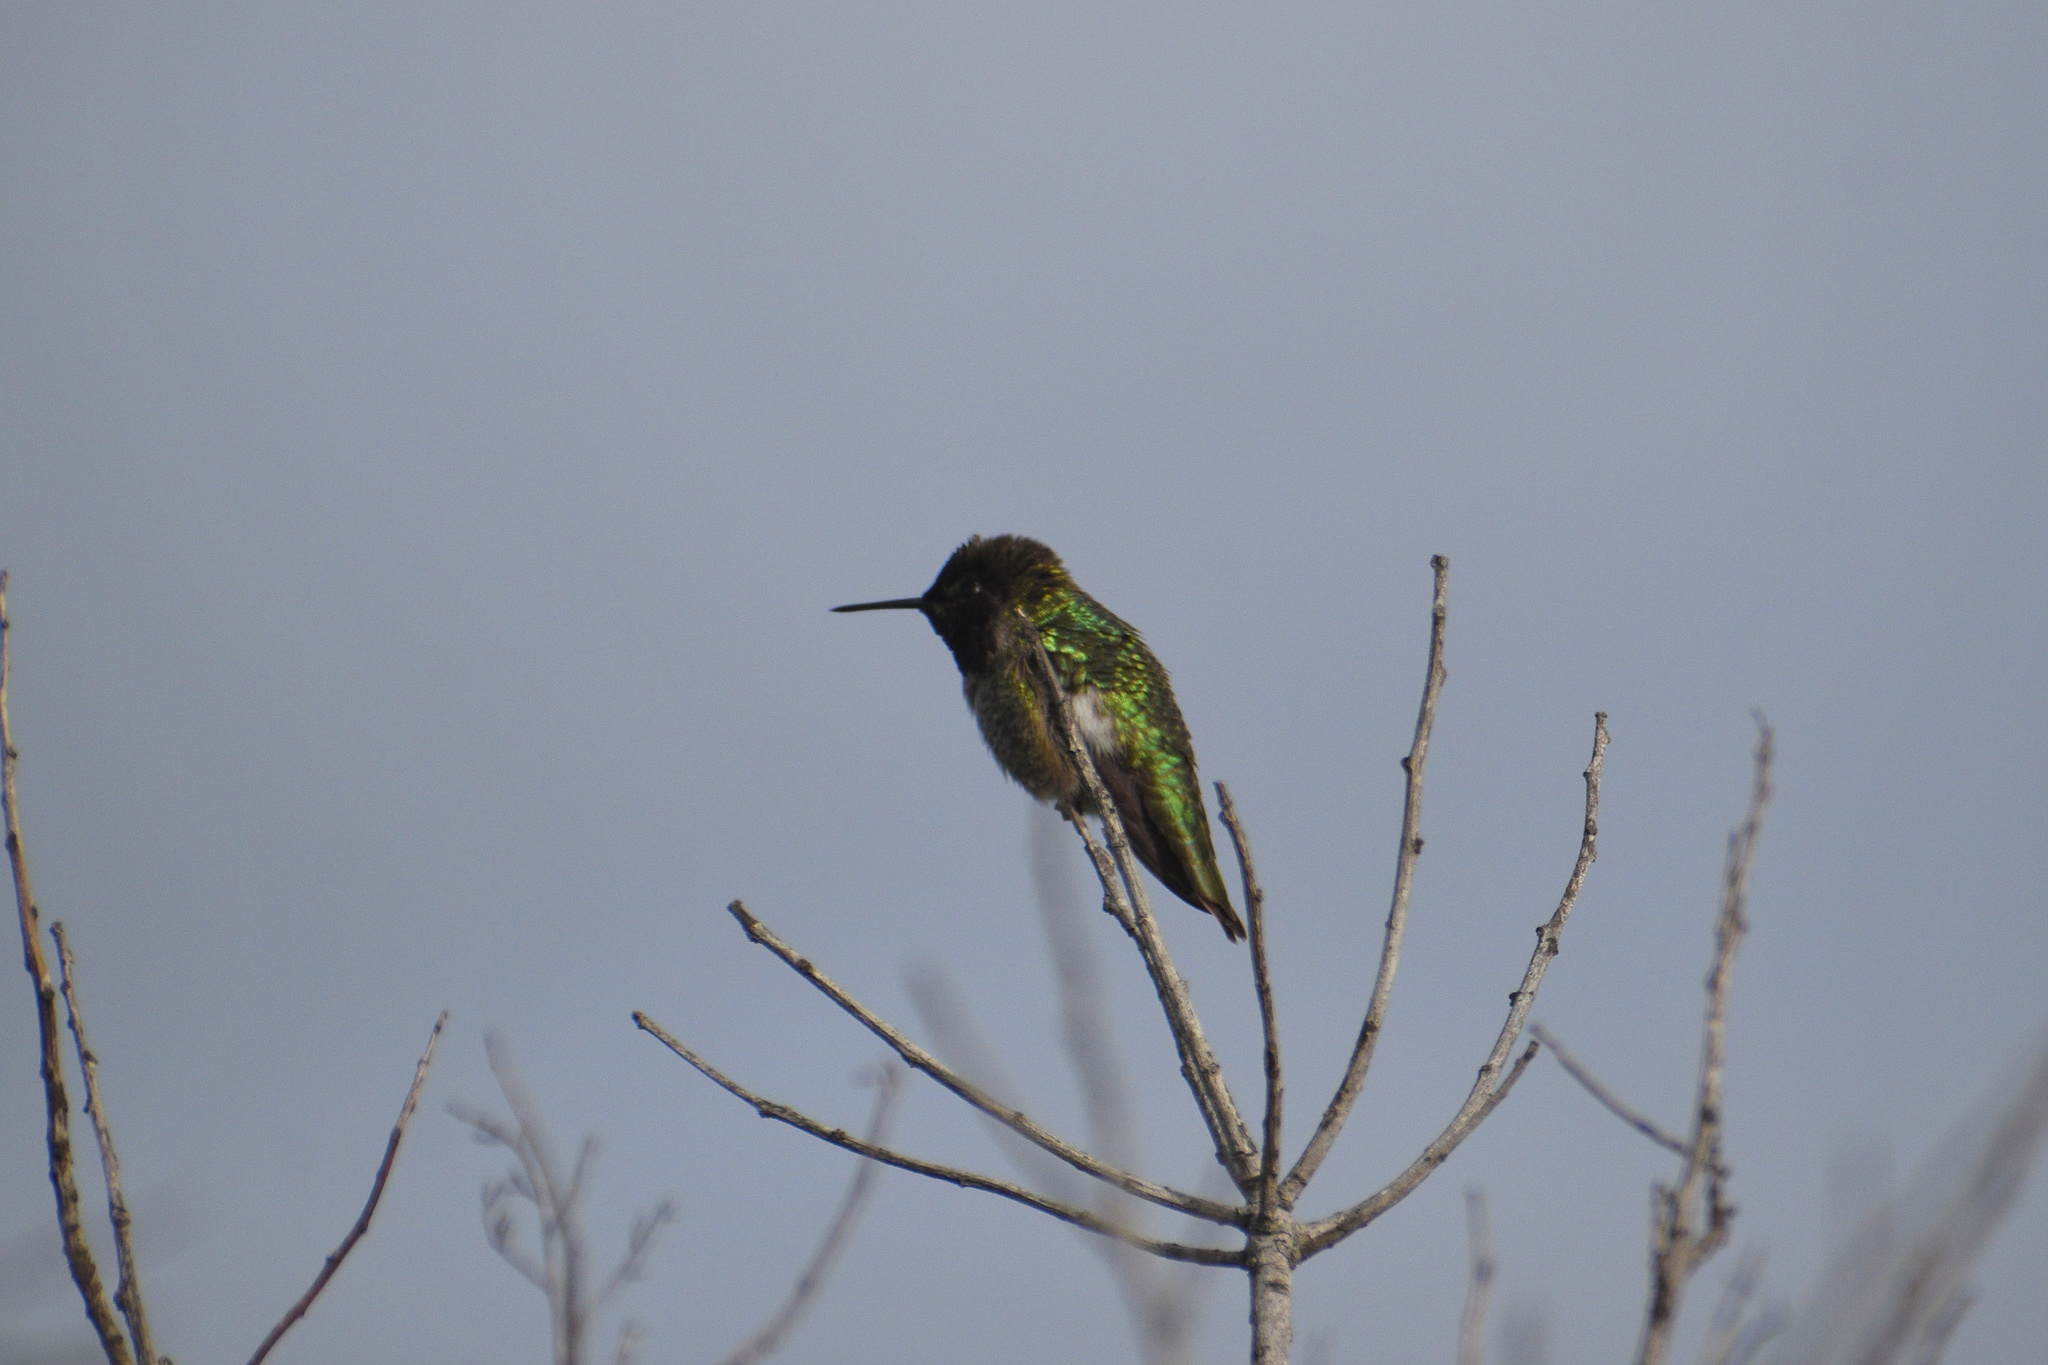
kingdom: Animalia
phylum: Chordata
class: Aves
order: Apodiformes
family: Trochilidae
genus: Calypte
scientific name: Calypte anna
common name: Anna's hummingbird
